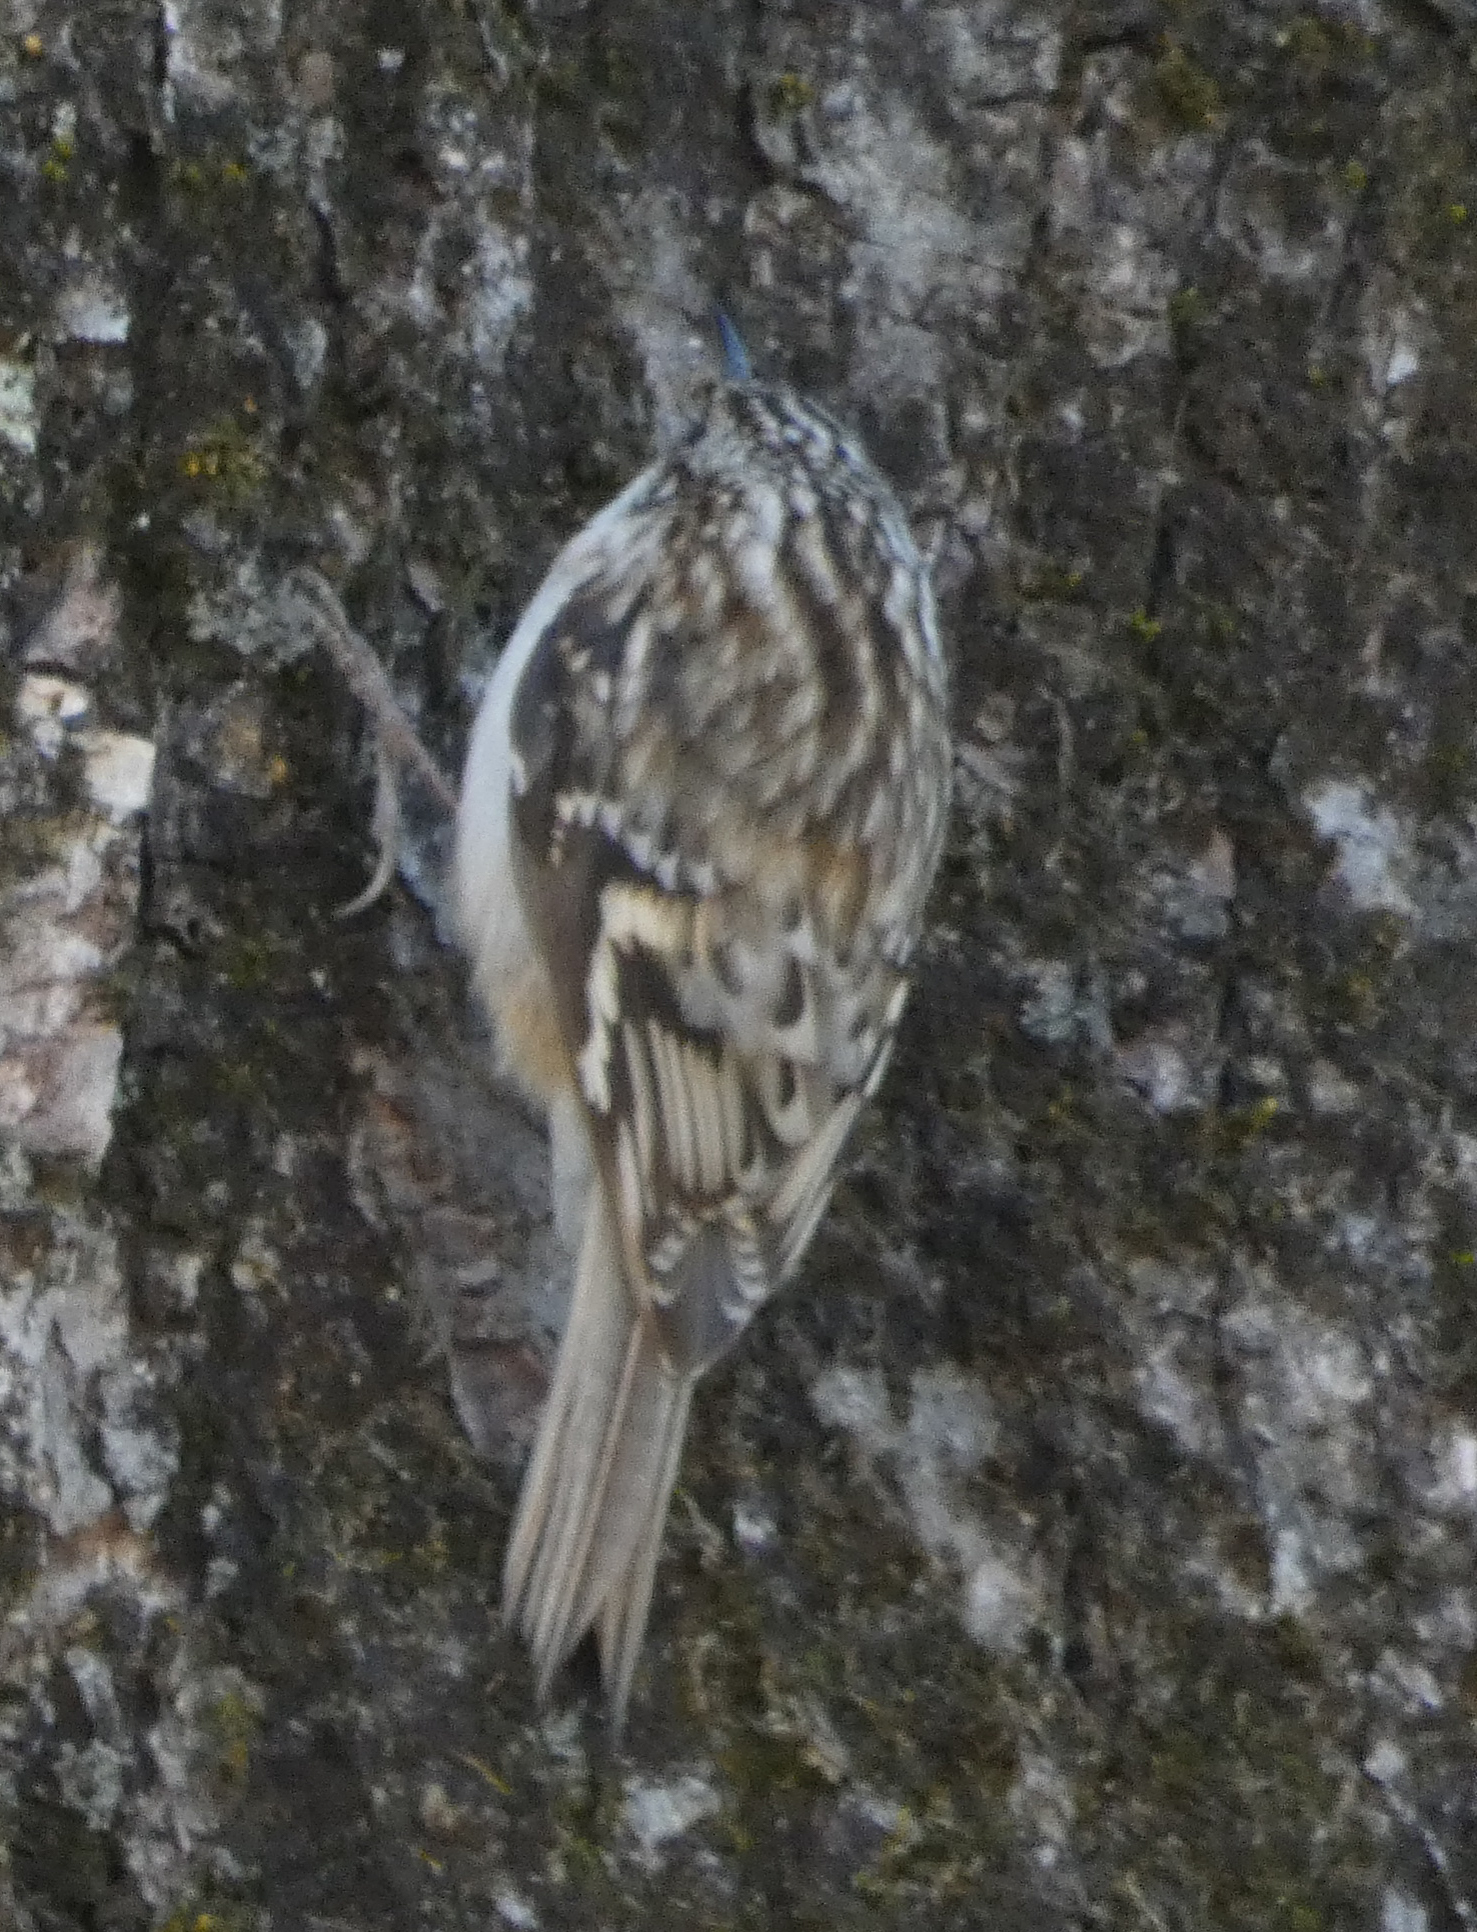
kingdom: Animalia
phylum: Chordata
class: Aves
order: Passeriformes
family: Certhiidae
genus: Certhia
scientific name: Certhia americana
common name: Brown creeper
